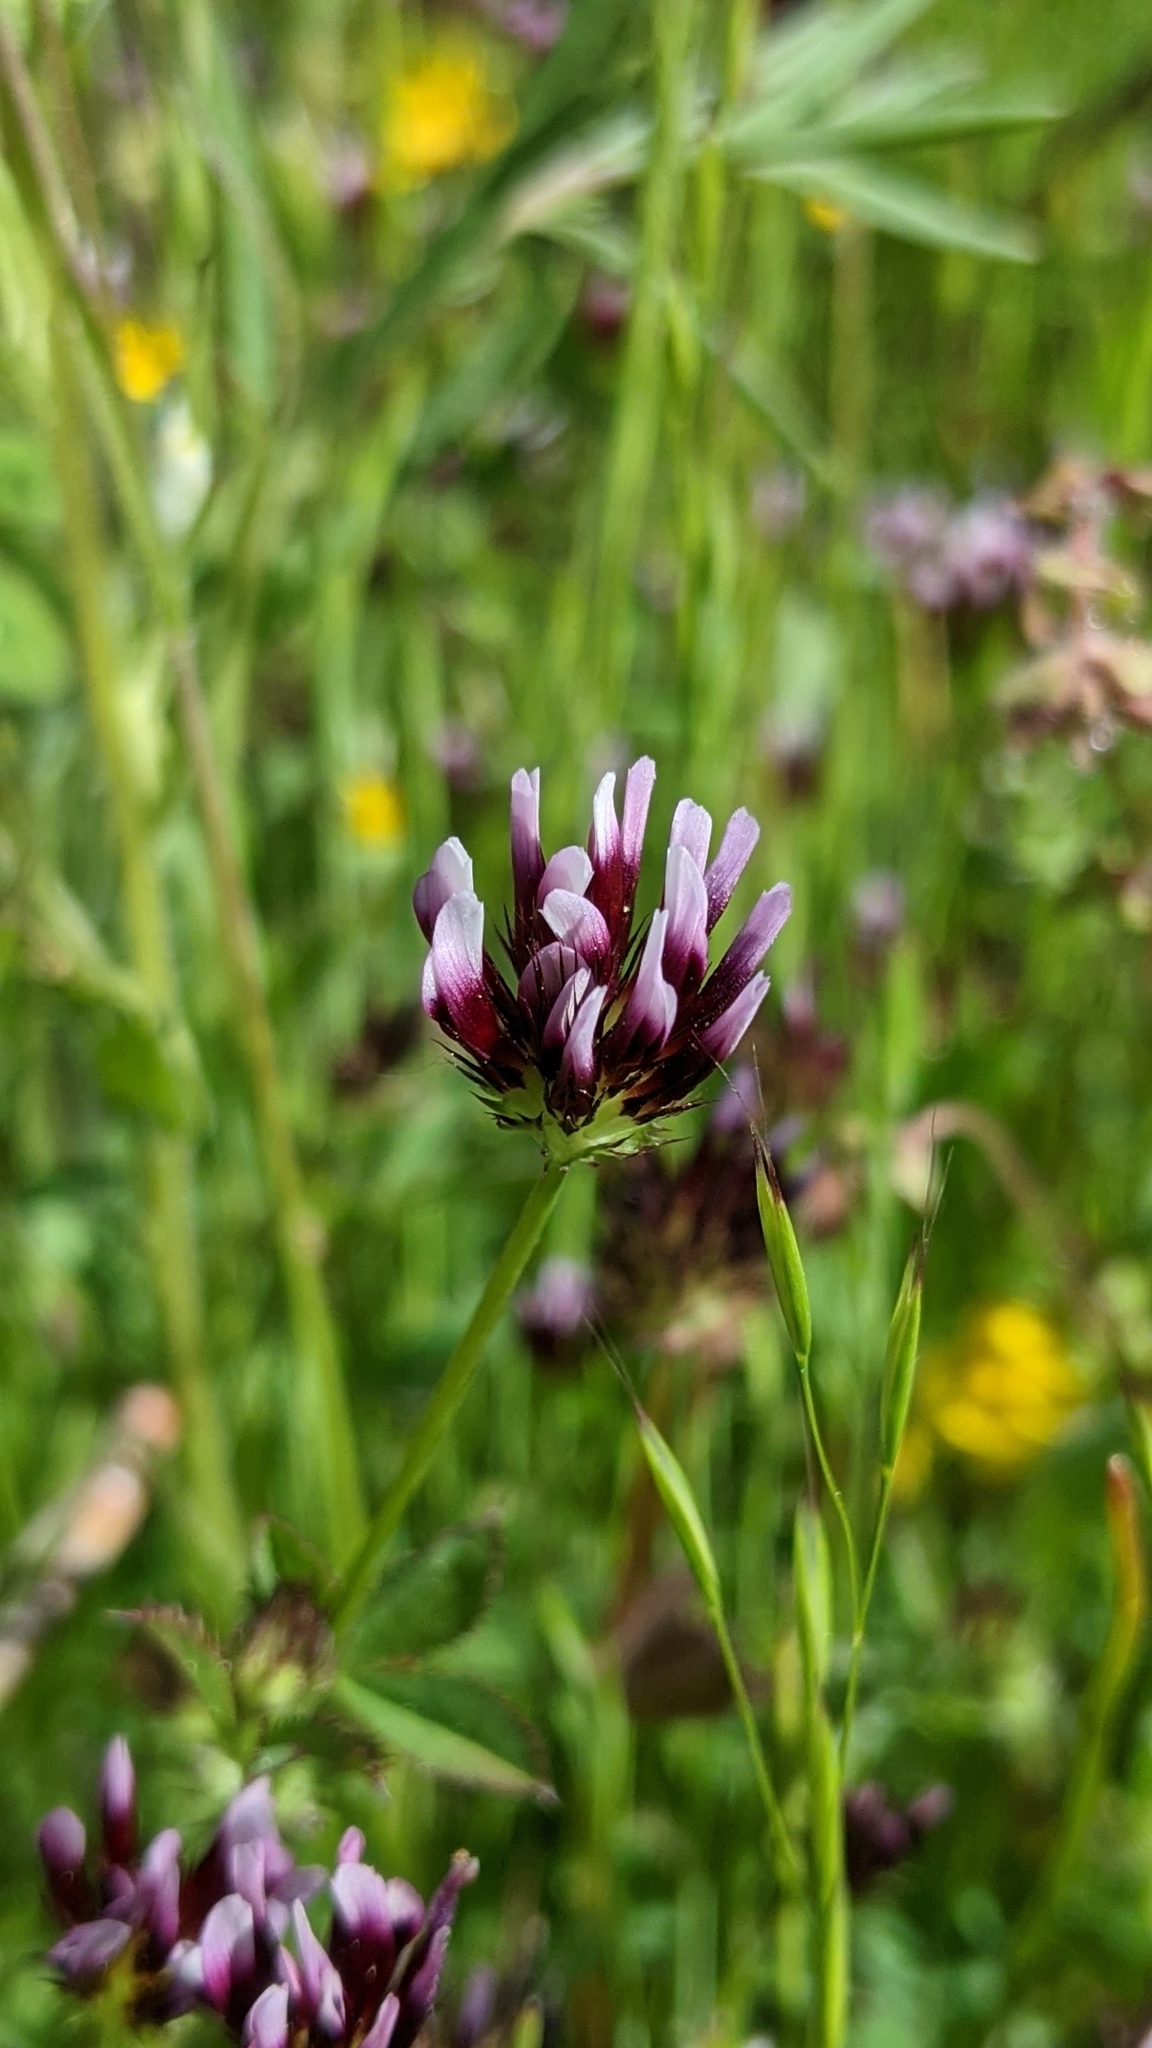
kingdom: Plantae
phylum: Tracheophyta
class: Magnoliopsida
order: Fabales
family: Fabaceae
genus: Trifolium
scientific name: Trifolium variegatum
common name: Whitetip clover
